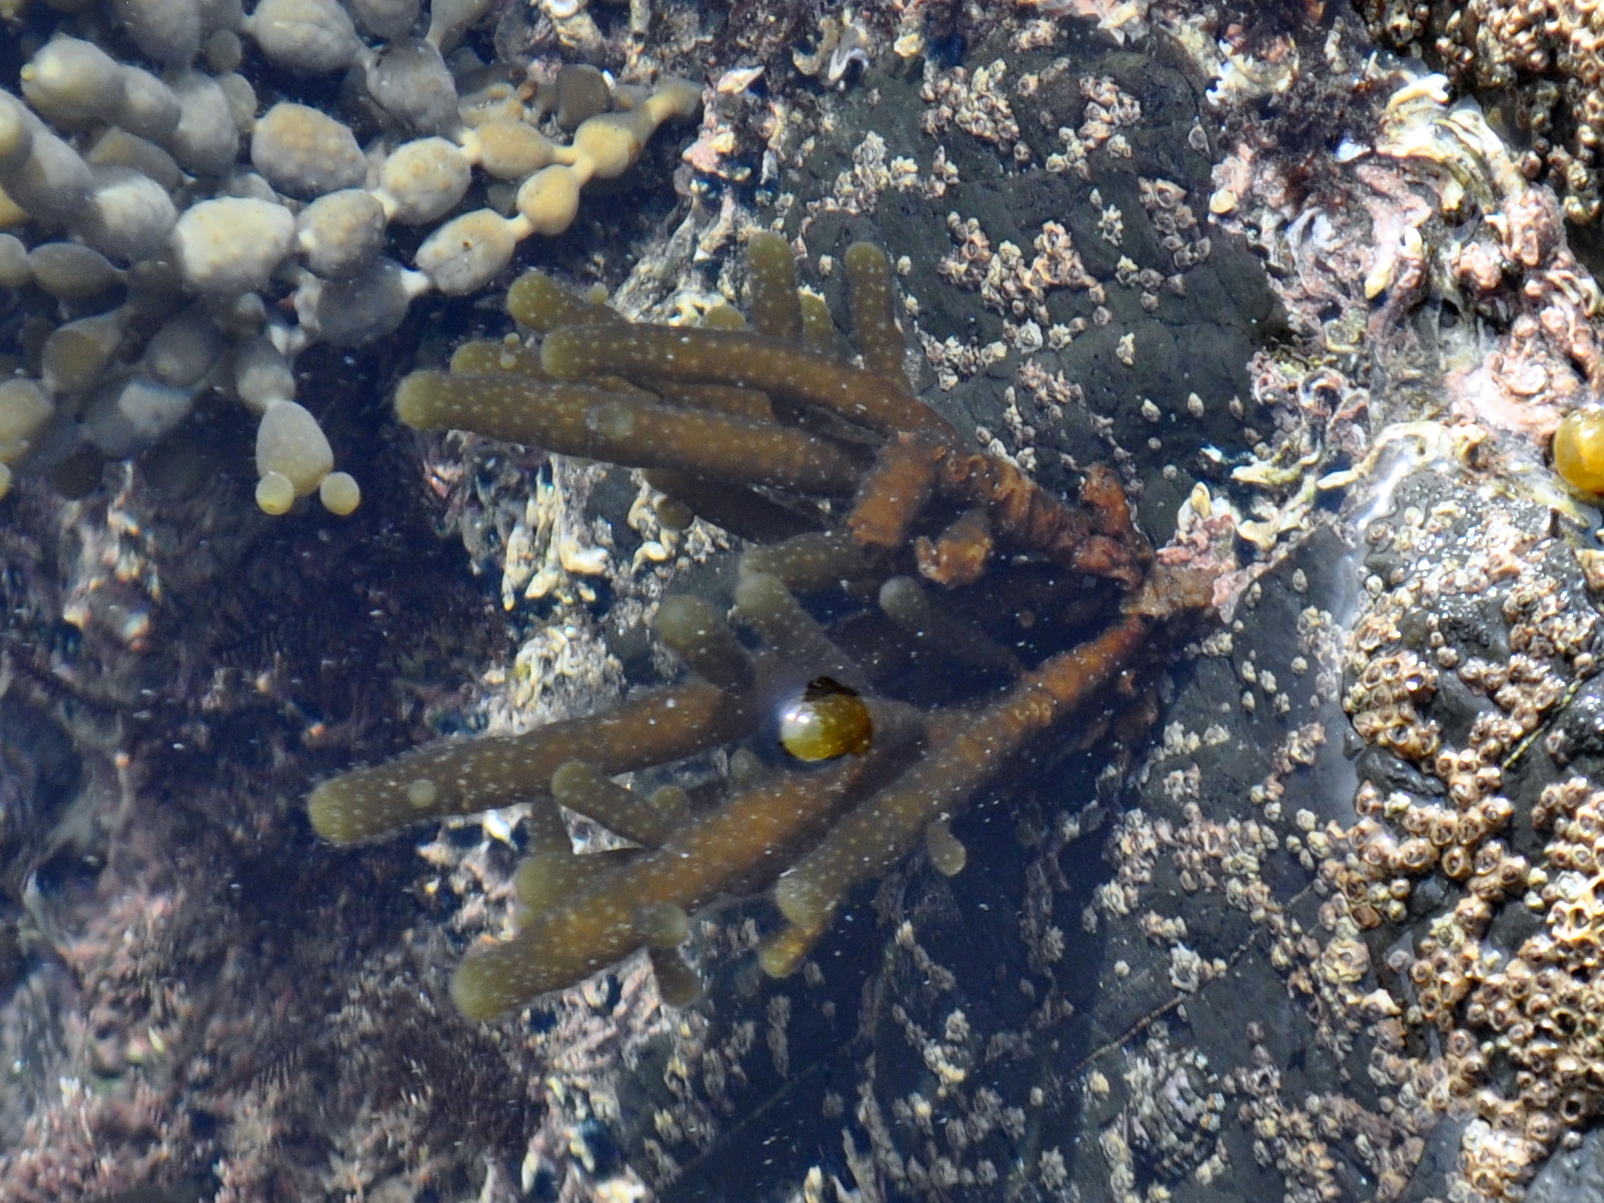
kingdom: Chromista
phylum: Ochrophyta
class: Phaeophyceae
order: Scytothamnales
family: Splachnidiaceae
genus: Splachnidium
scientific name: Splachnidium rugosum
